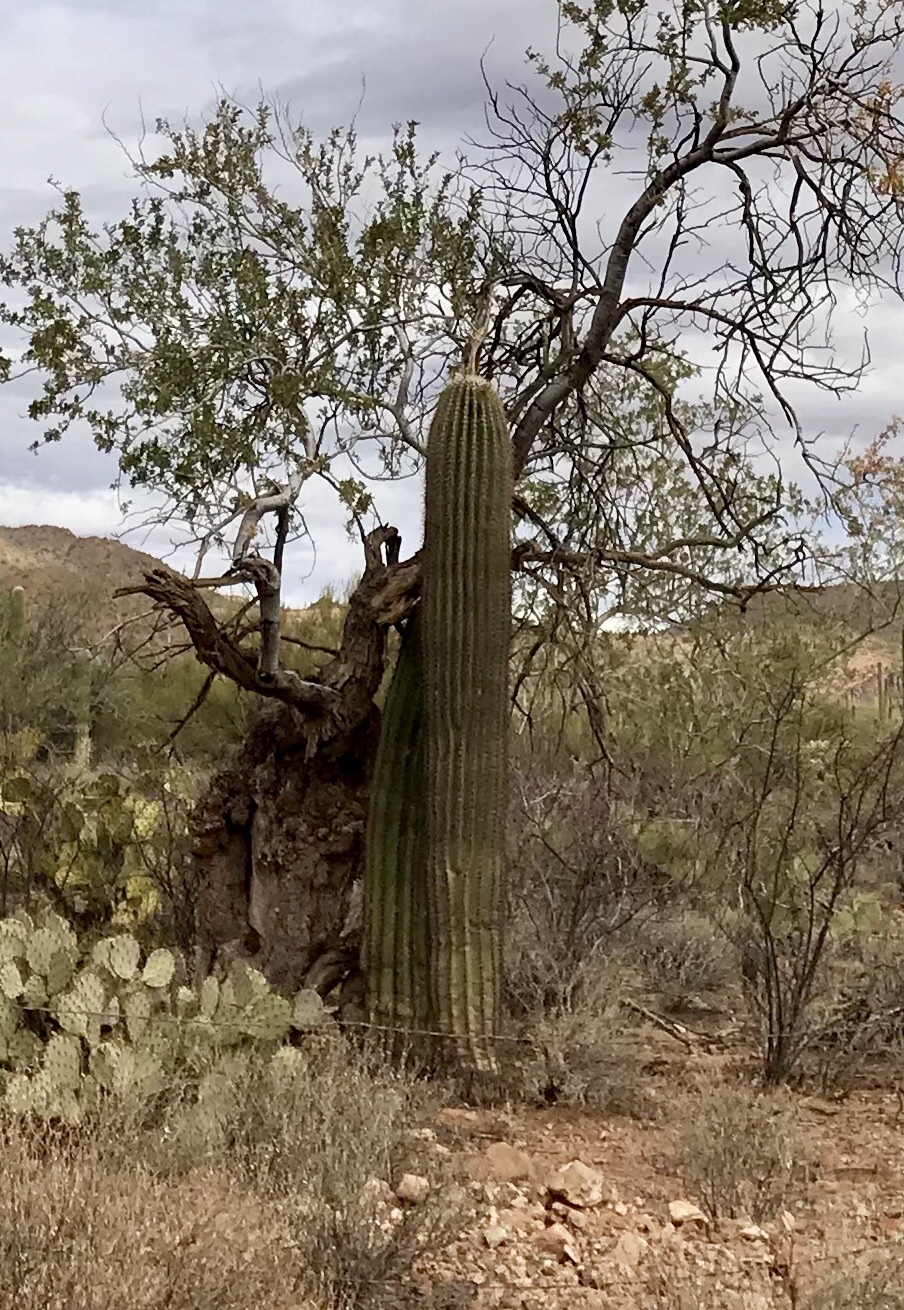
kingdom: Plantae
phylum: Tracheophyta
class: Magnoliopsida
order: Caryophyllales
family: Cactaceae
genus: Carnegiea
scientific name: Carnegiea gigantea
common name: Saguaro
